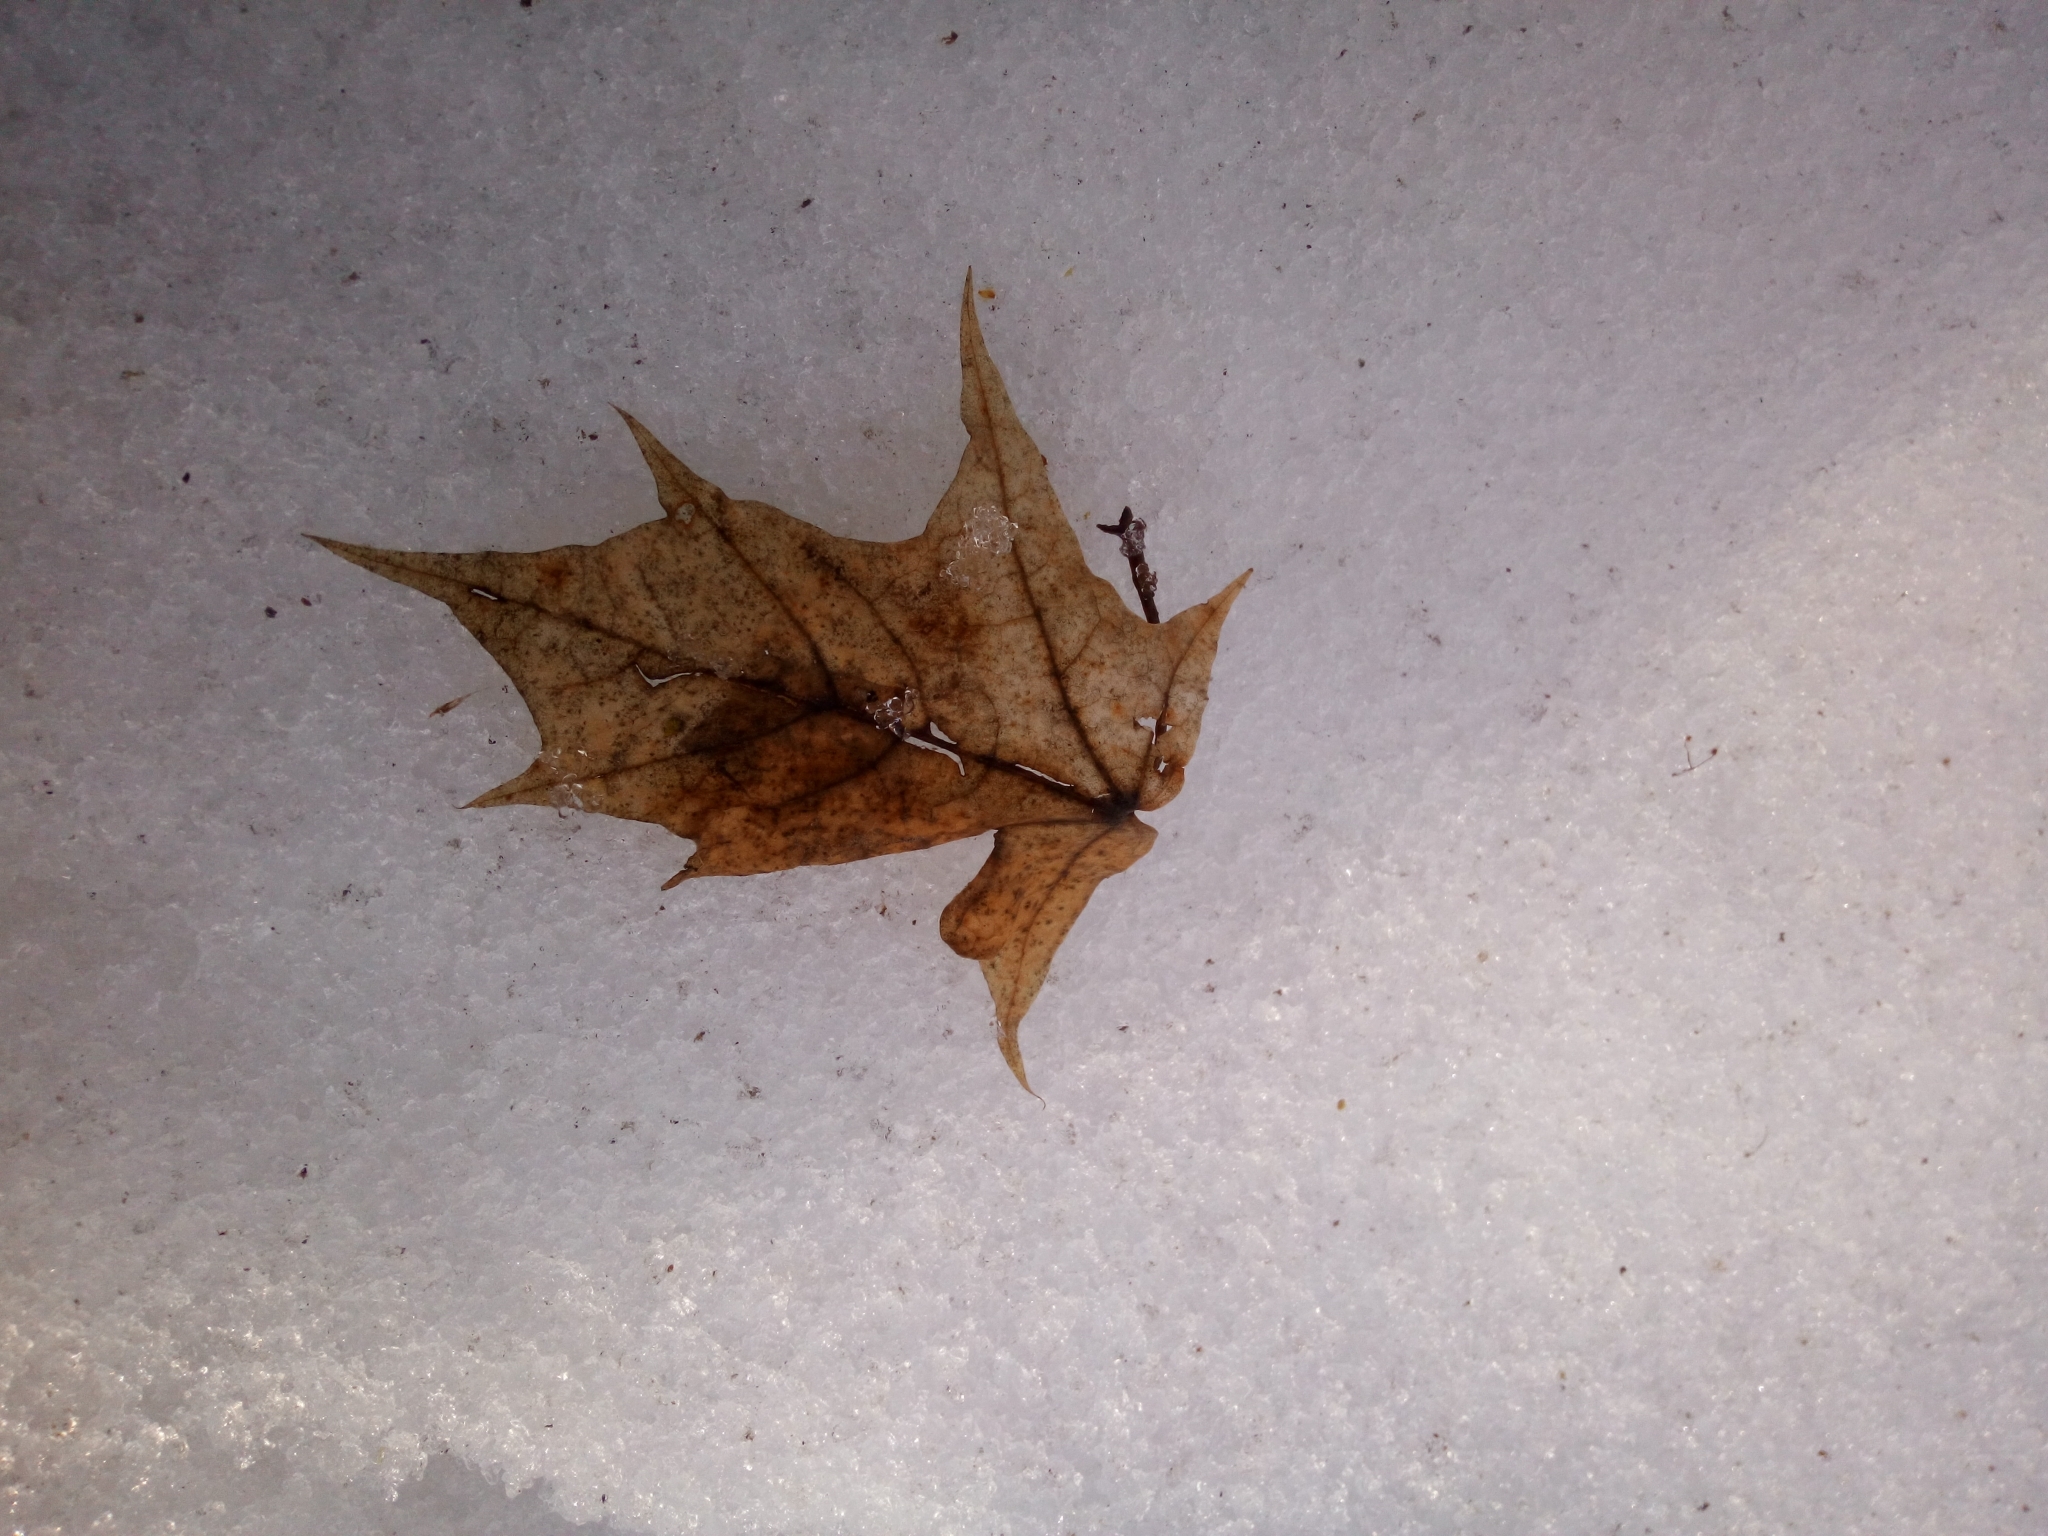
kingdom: Plantae
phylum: Tracheophyta
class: Magnoliopsida
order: Sapindales
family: Sapindaceae
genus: Acer
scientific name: Acer platanoides
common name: Norway maple
